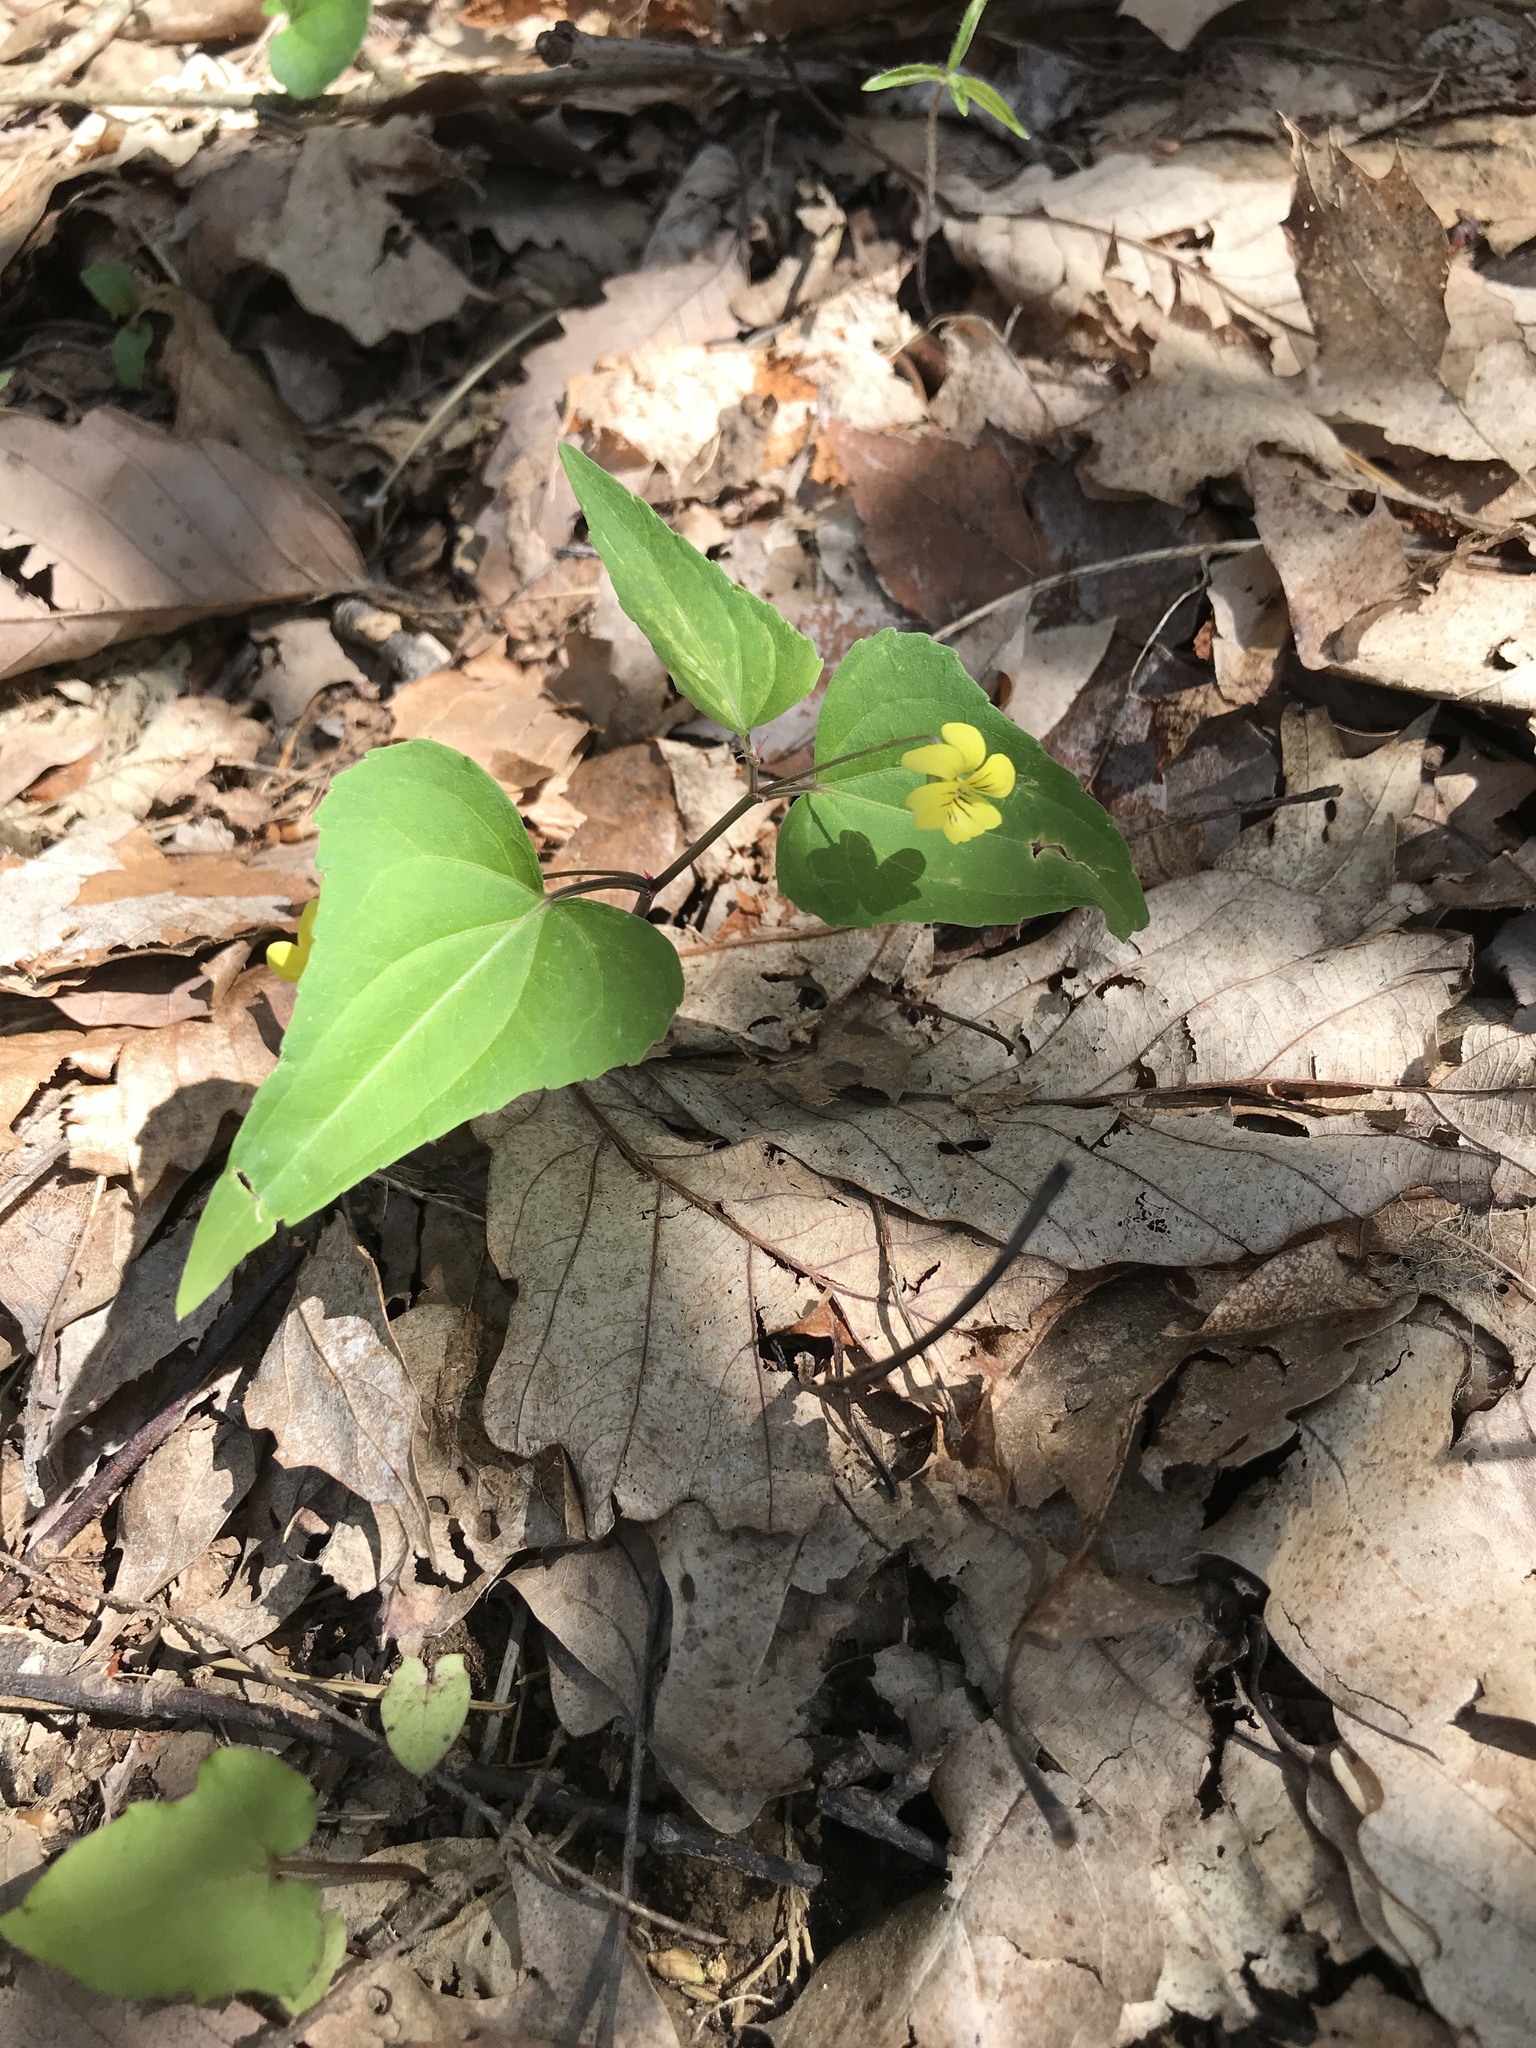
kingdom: Plantae
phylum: Tracheophyta
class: Magnoliopsida
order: Malpighiales
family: Violaceae
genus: Viola
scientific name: Viola hastata
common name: Spear-leaf violet
